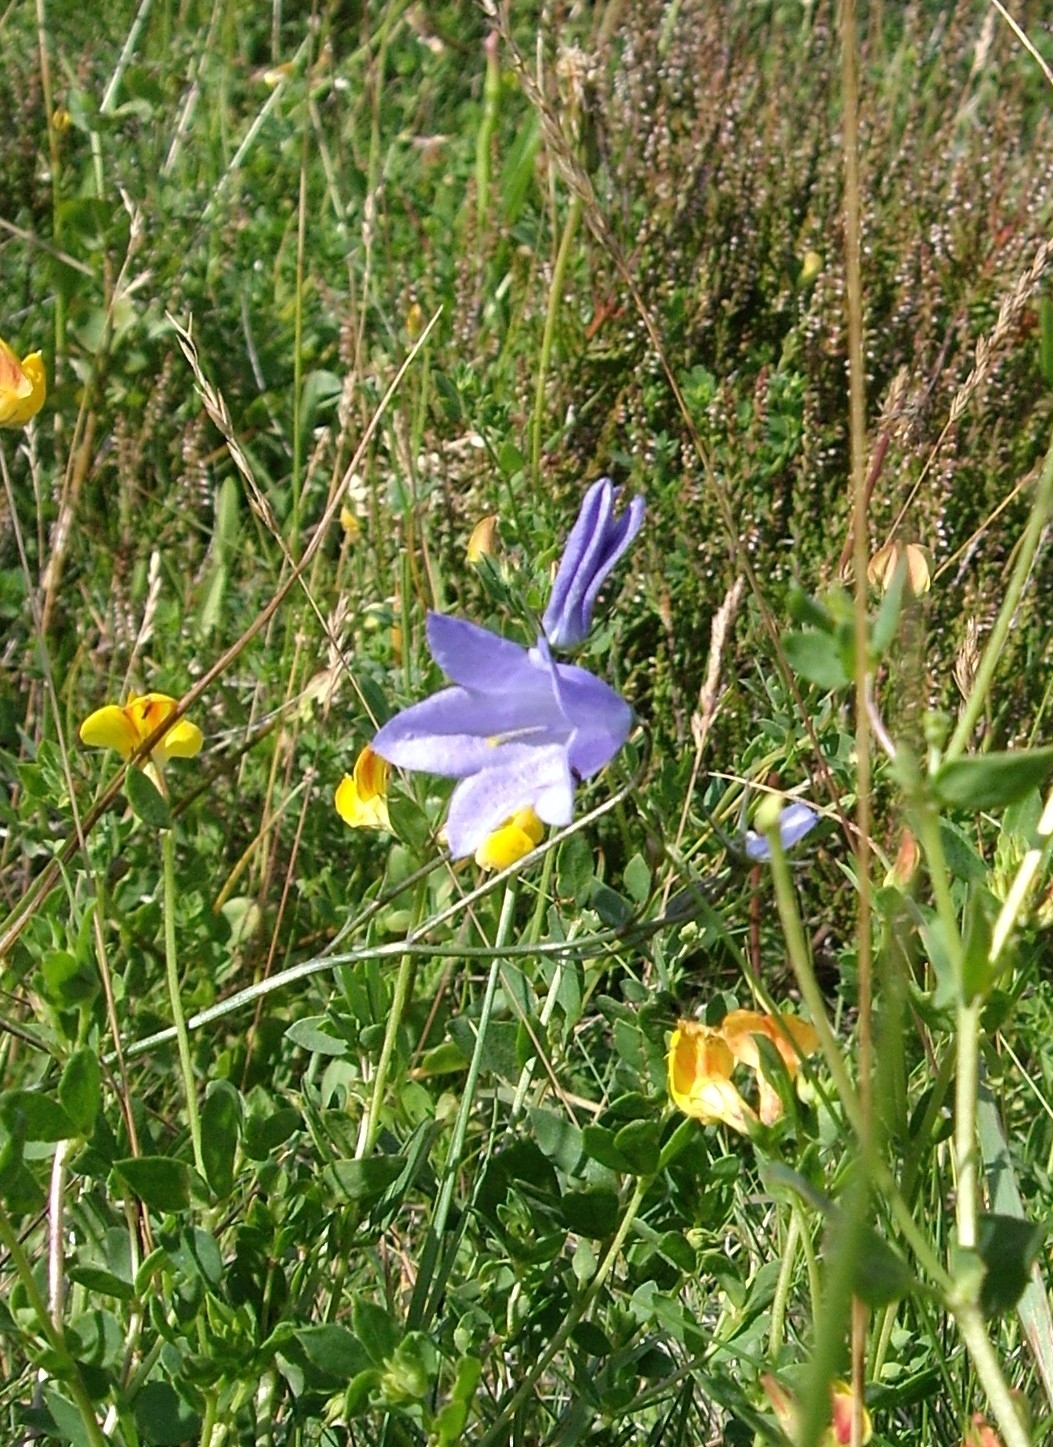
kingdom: Plantae
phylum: Tracheophyta
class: Magnoliopsida
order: Asterales
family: Campanulaceae
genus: Campanula
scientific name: Campanula rotundifolia
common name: Harebell
